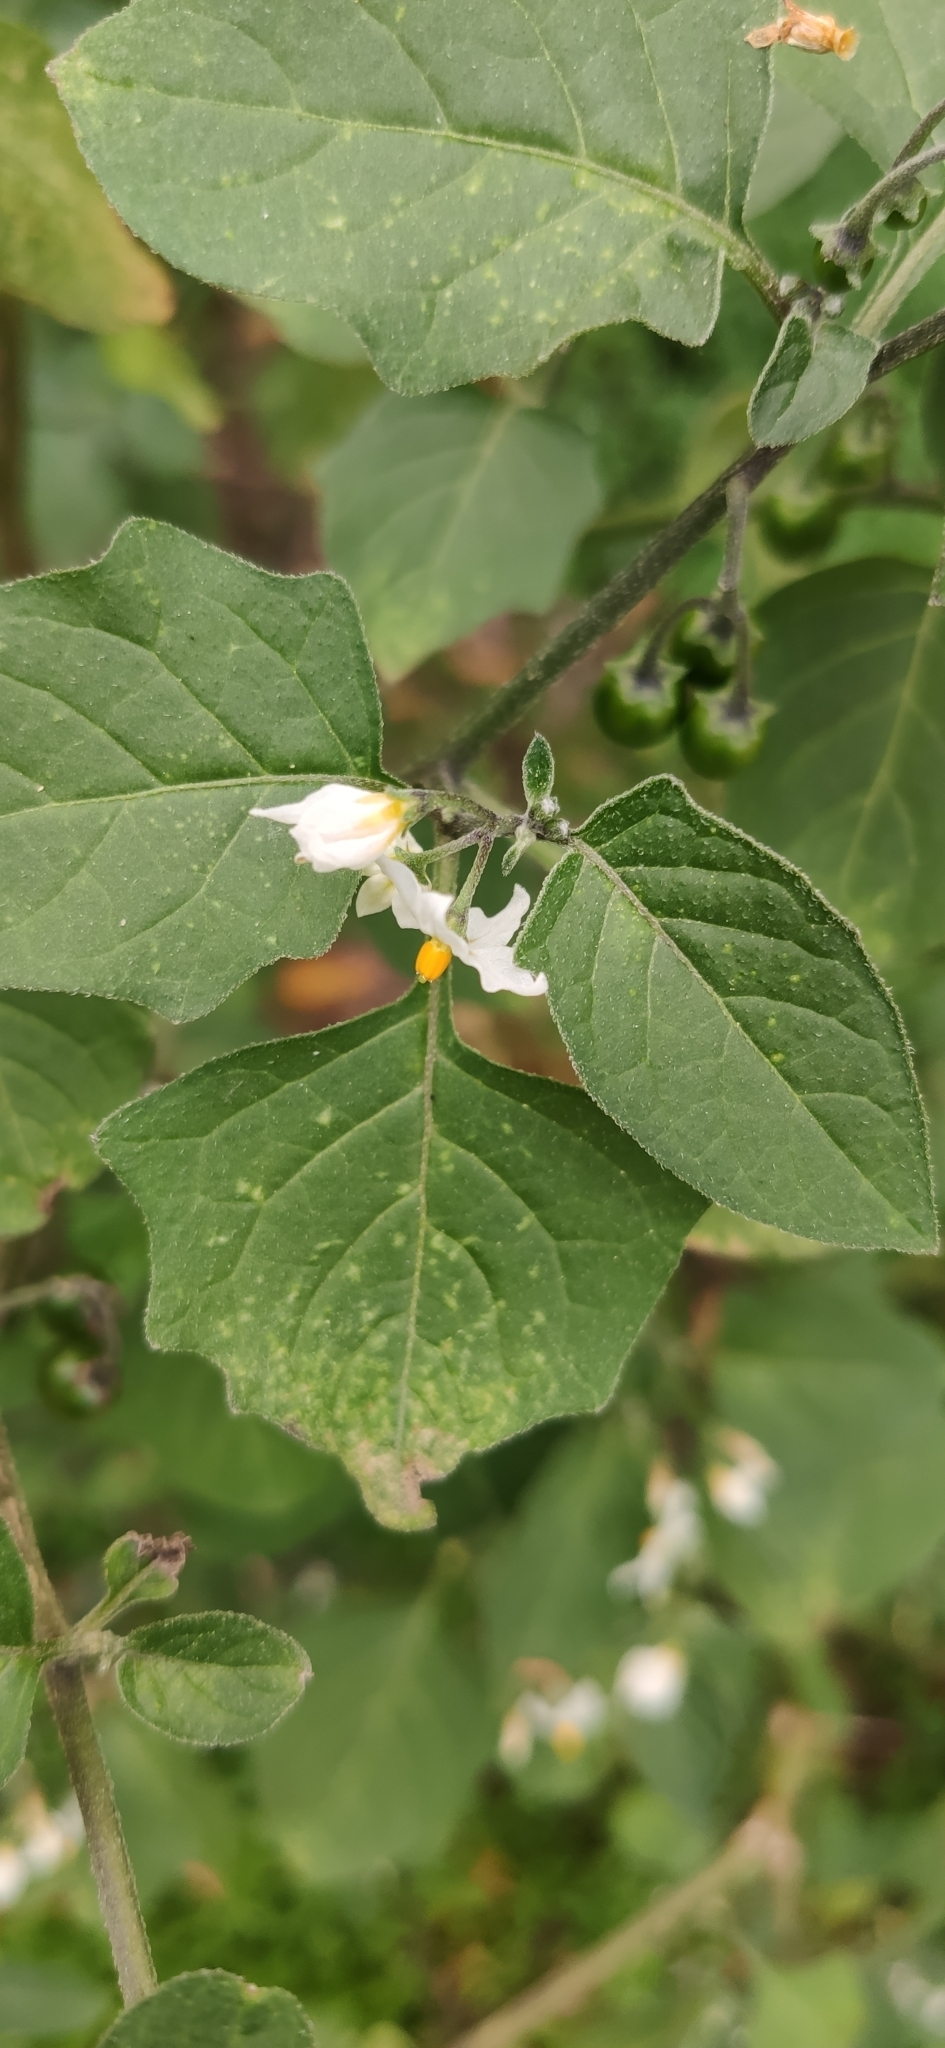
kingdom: Plantae
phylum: Tracheophyta
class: Magnoliopsida
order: Solanales
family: Solanaceae
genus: Solanum
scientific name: Solanum nigrum
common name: Black nightshade
